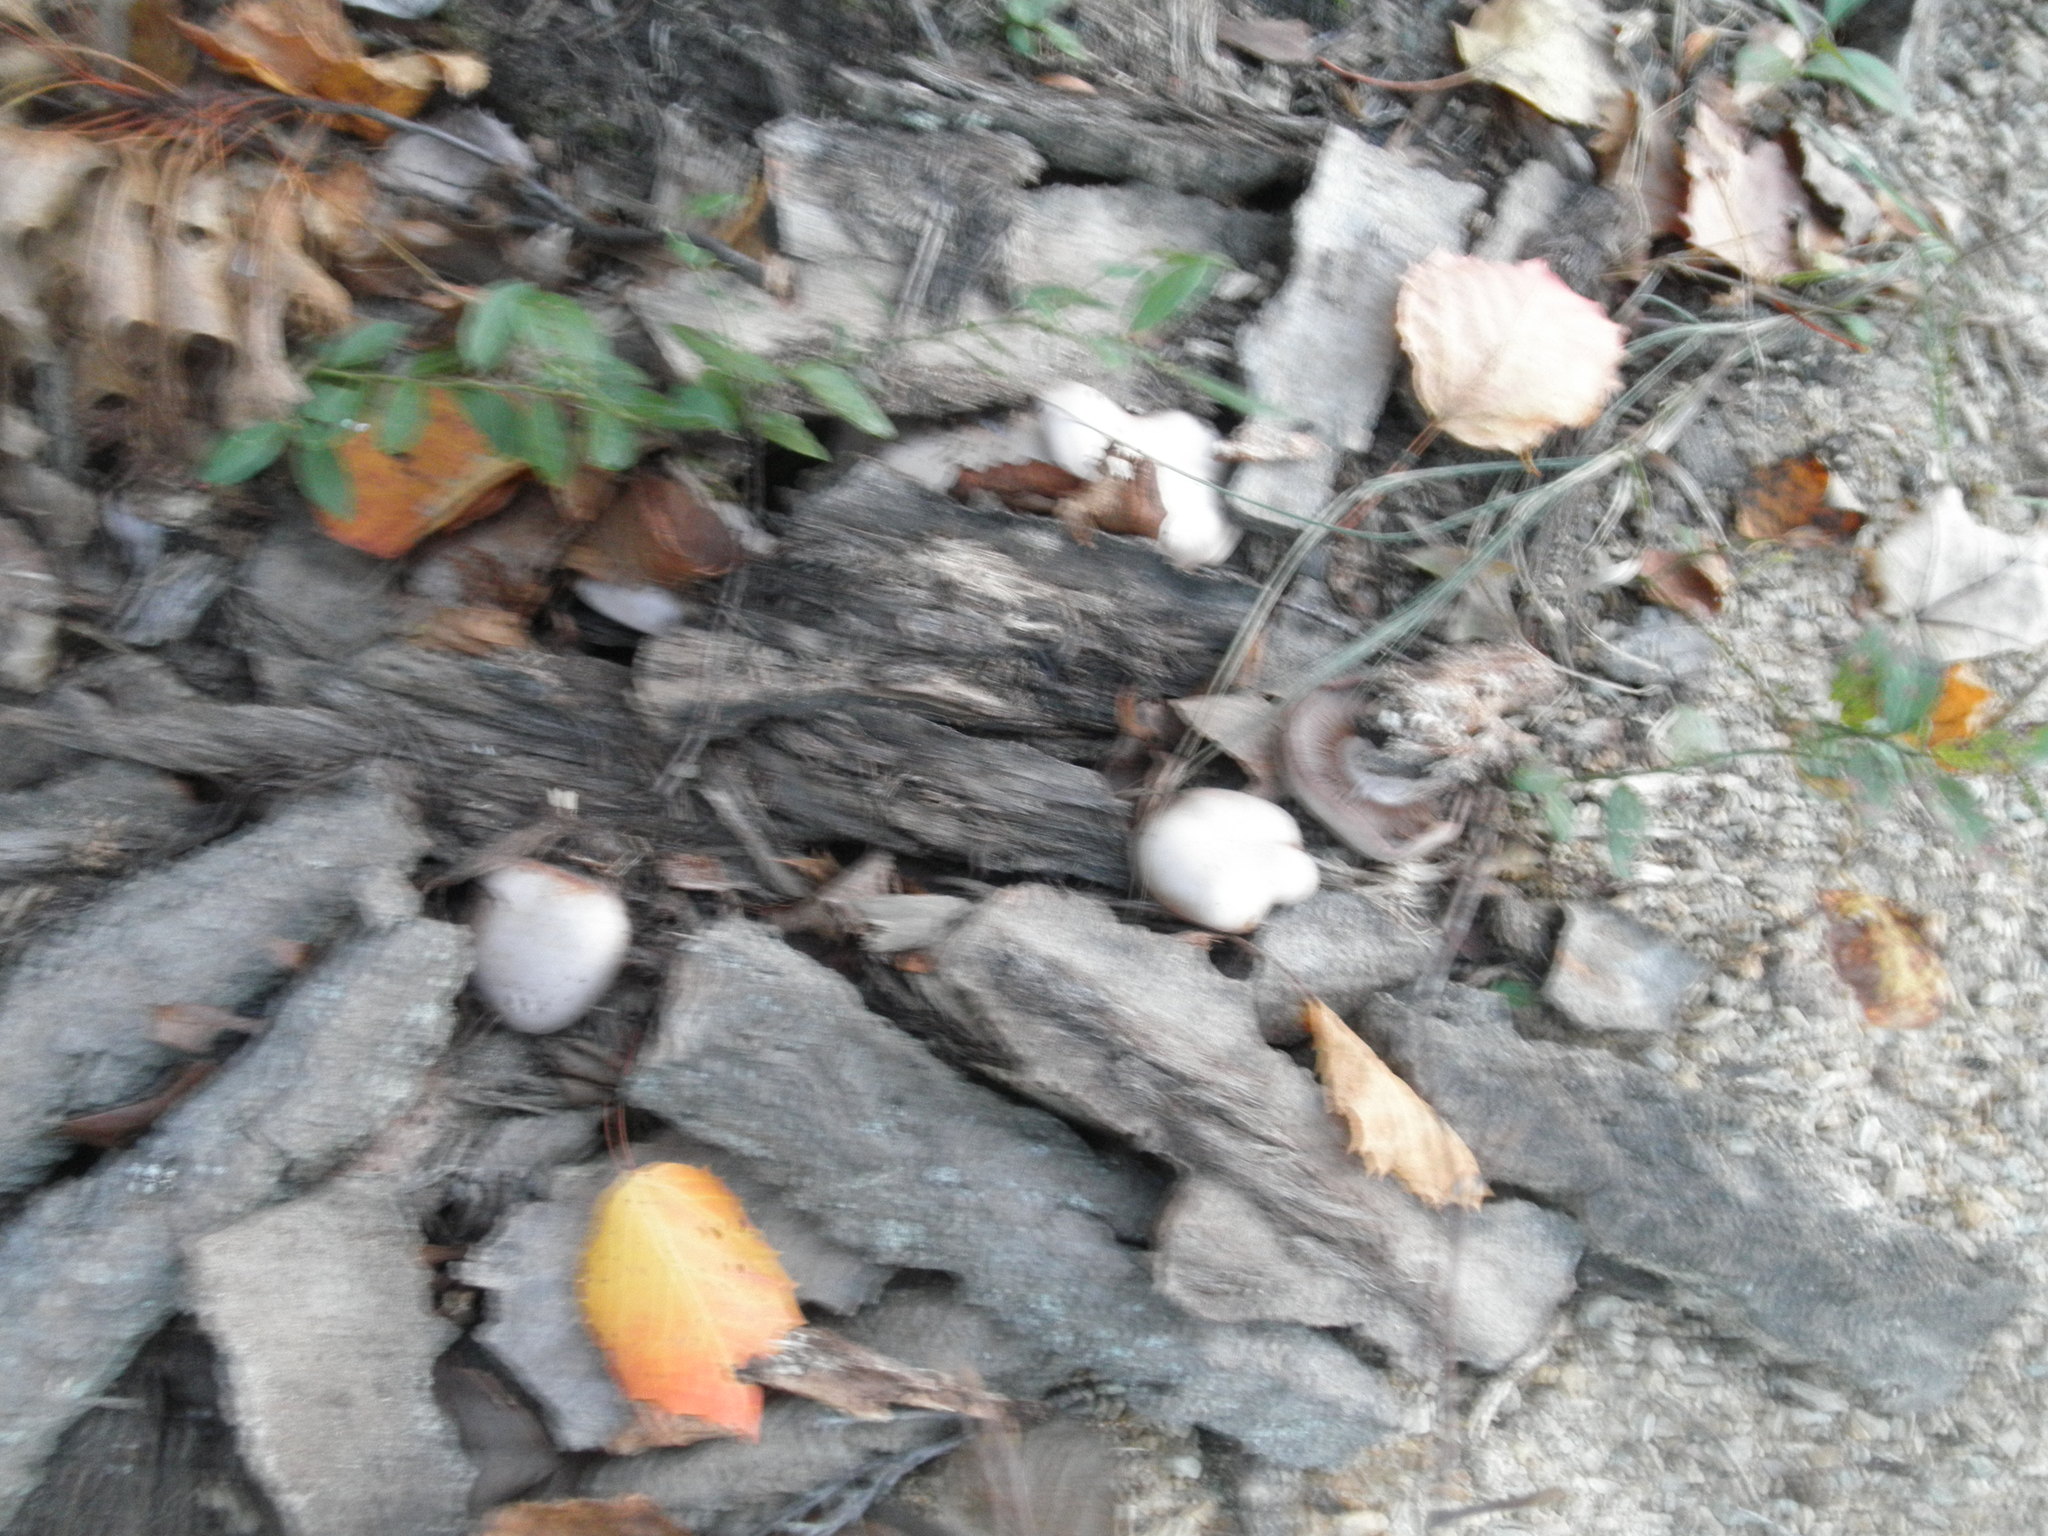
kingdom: Fungi
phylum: Basidiomycota
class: Agaricomycetes
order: Agaricales
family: Tricholomataceae
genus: Collybia
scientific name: Collybia
